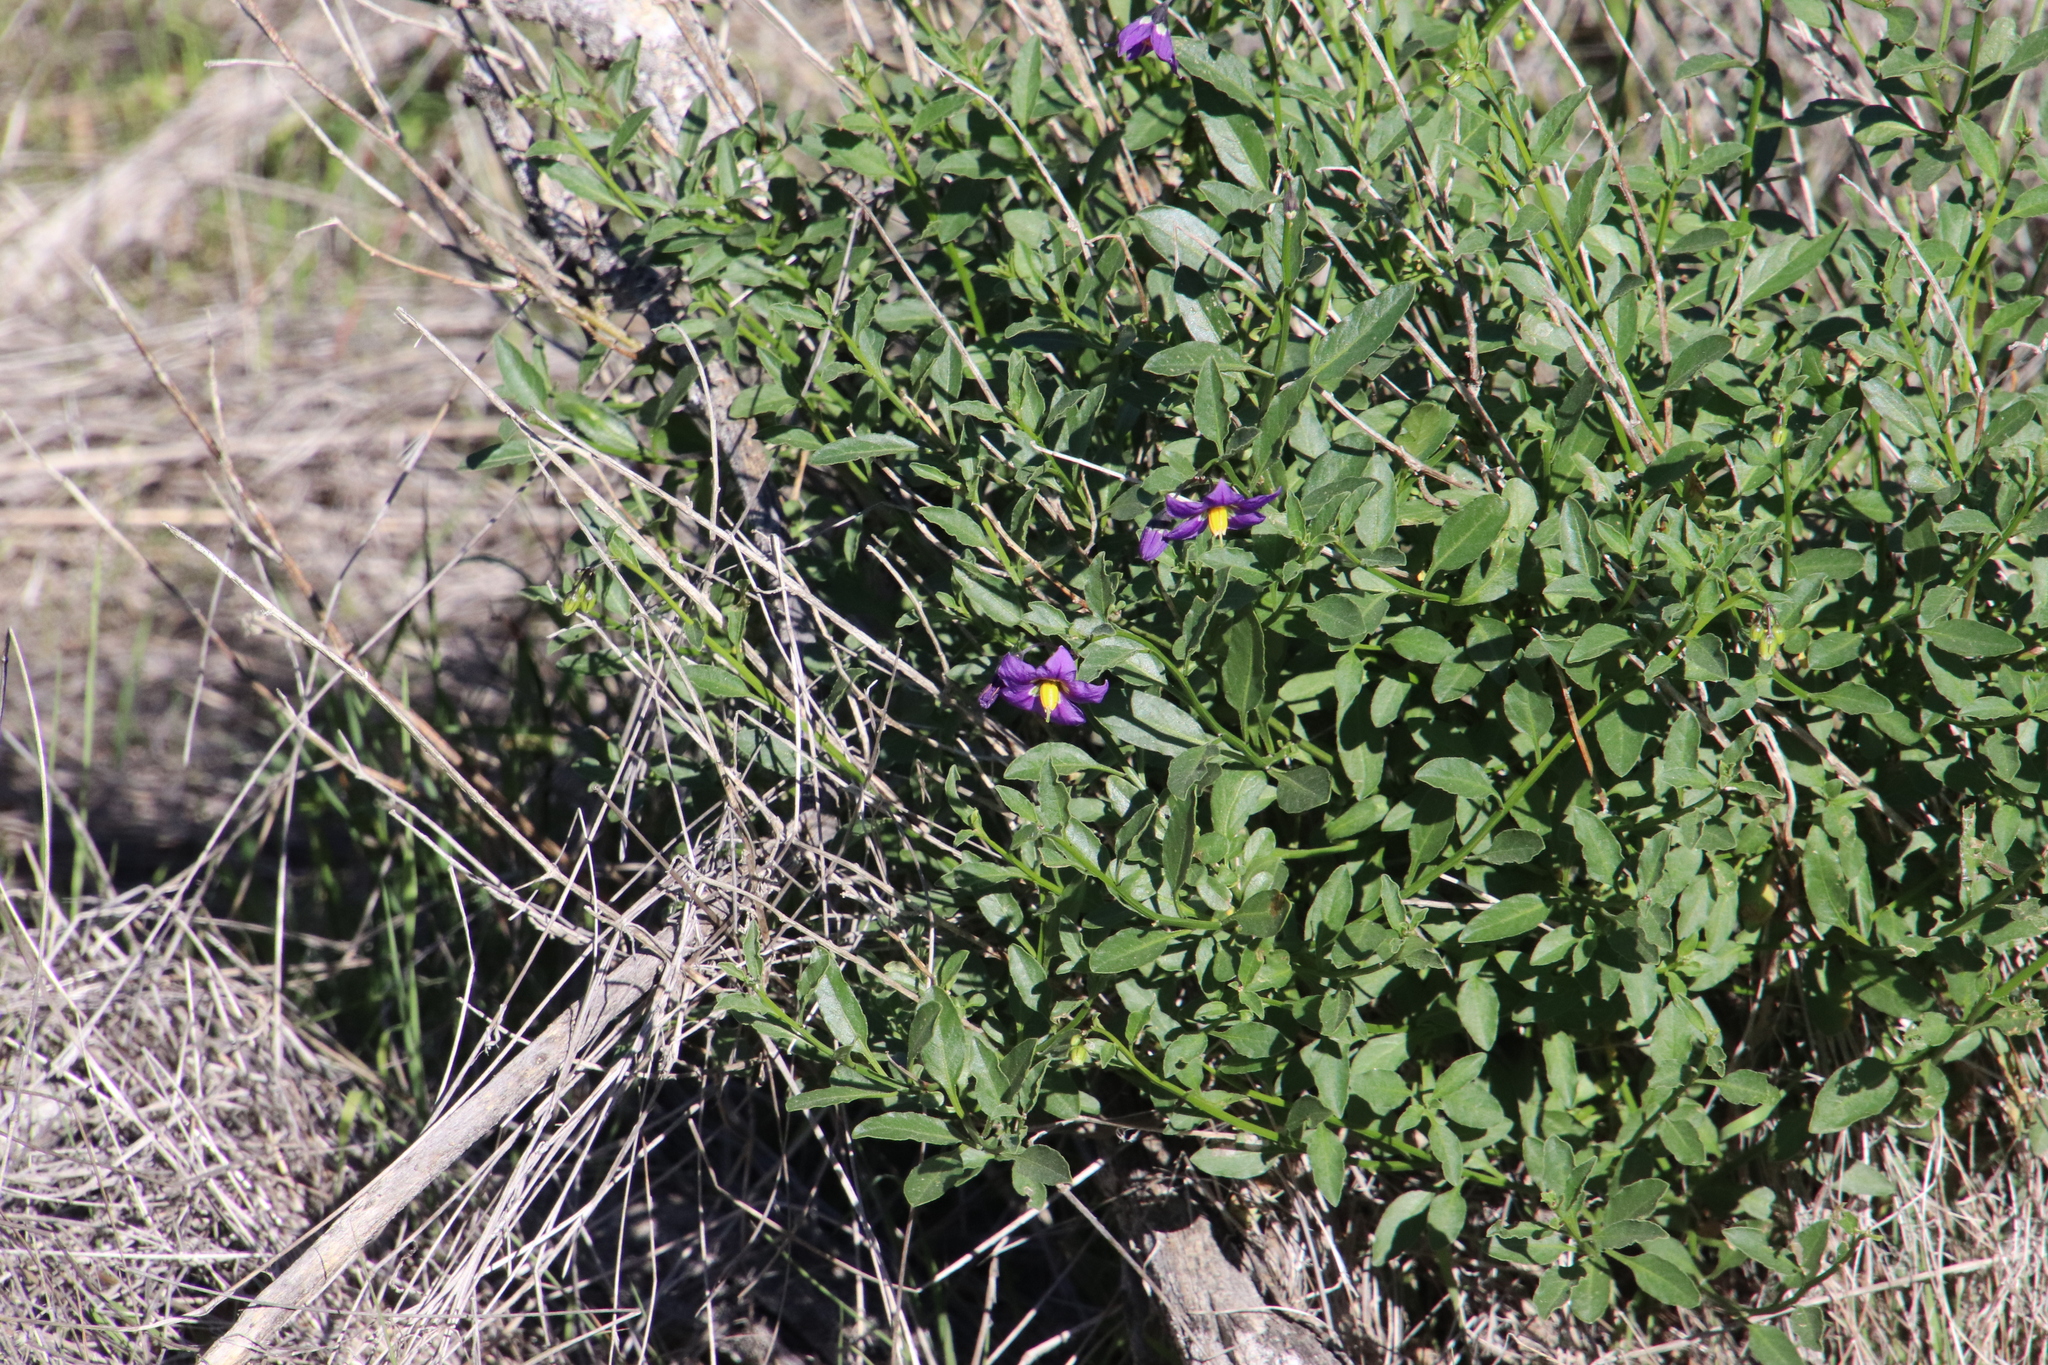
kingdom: Plantae
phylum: Tracheophyta
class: Magnoliopsida
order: Solanales
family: Solanaceae
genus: Solanum
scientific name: Solanum umbelliferum
